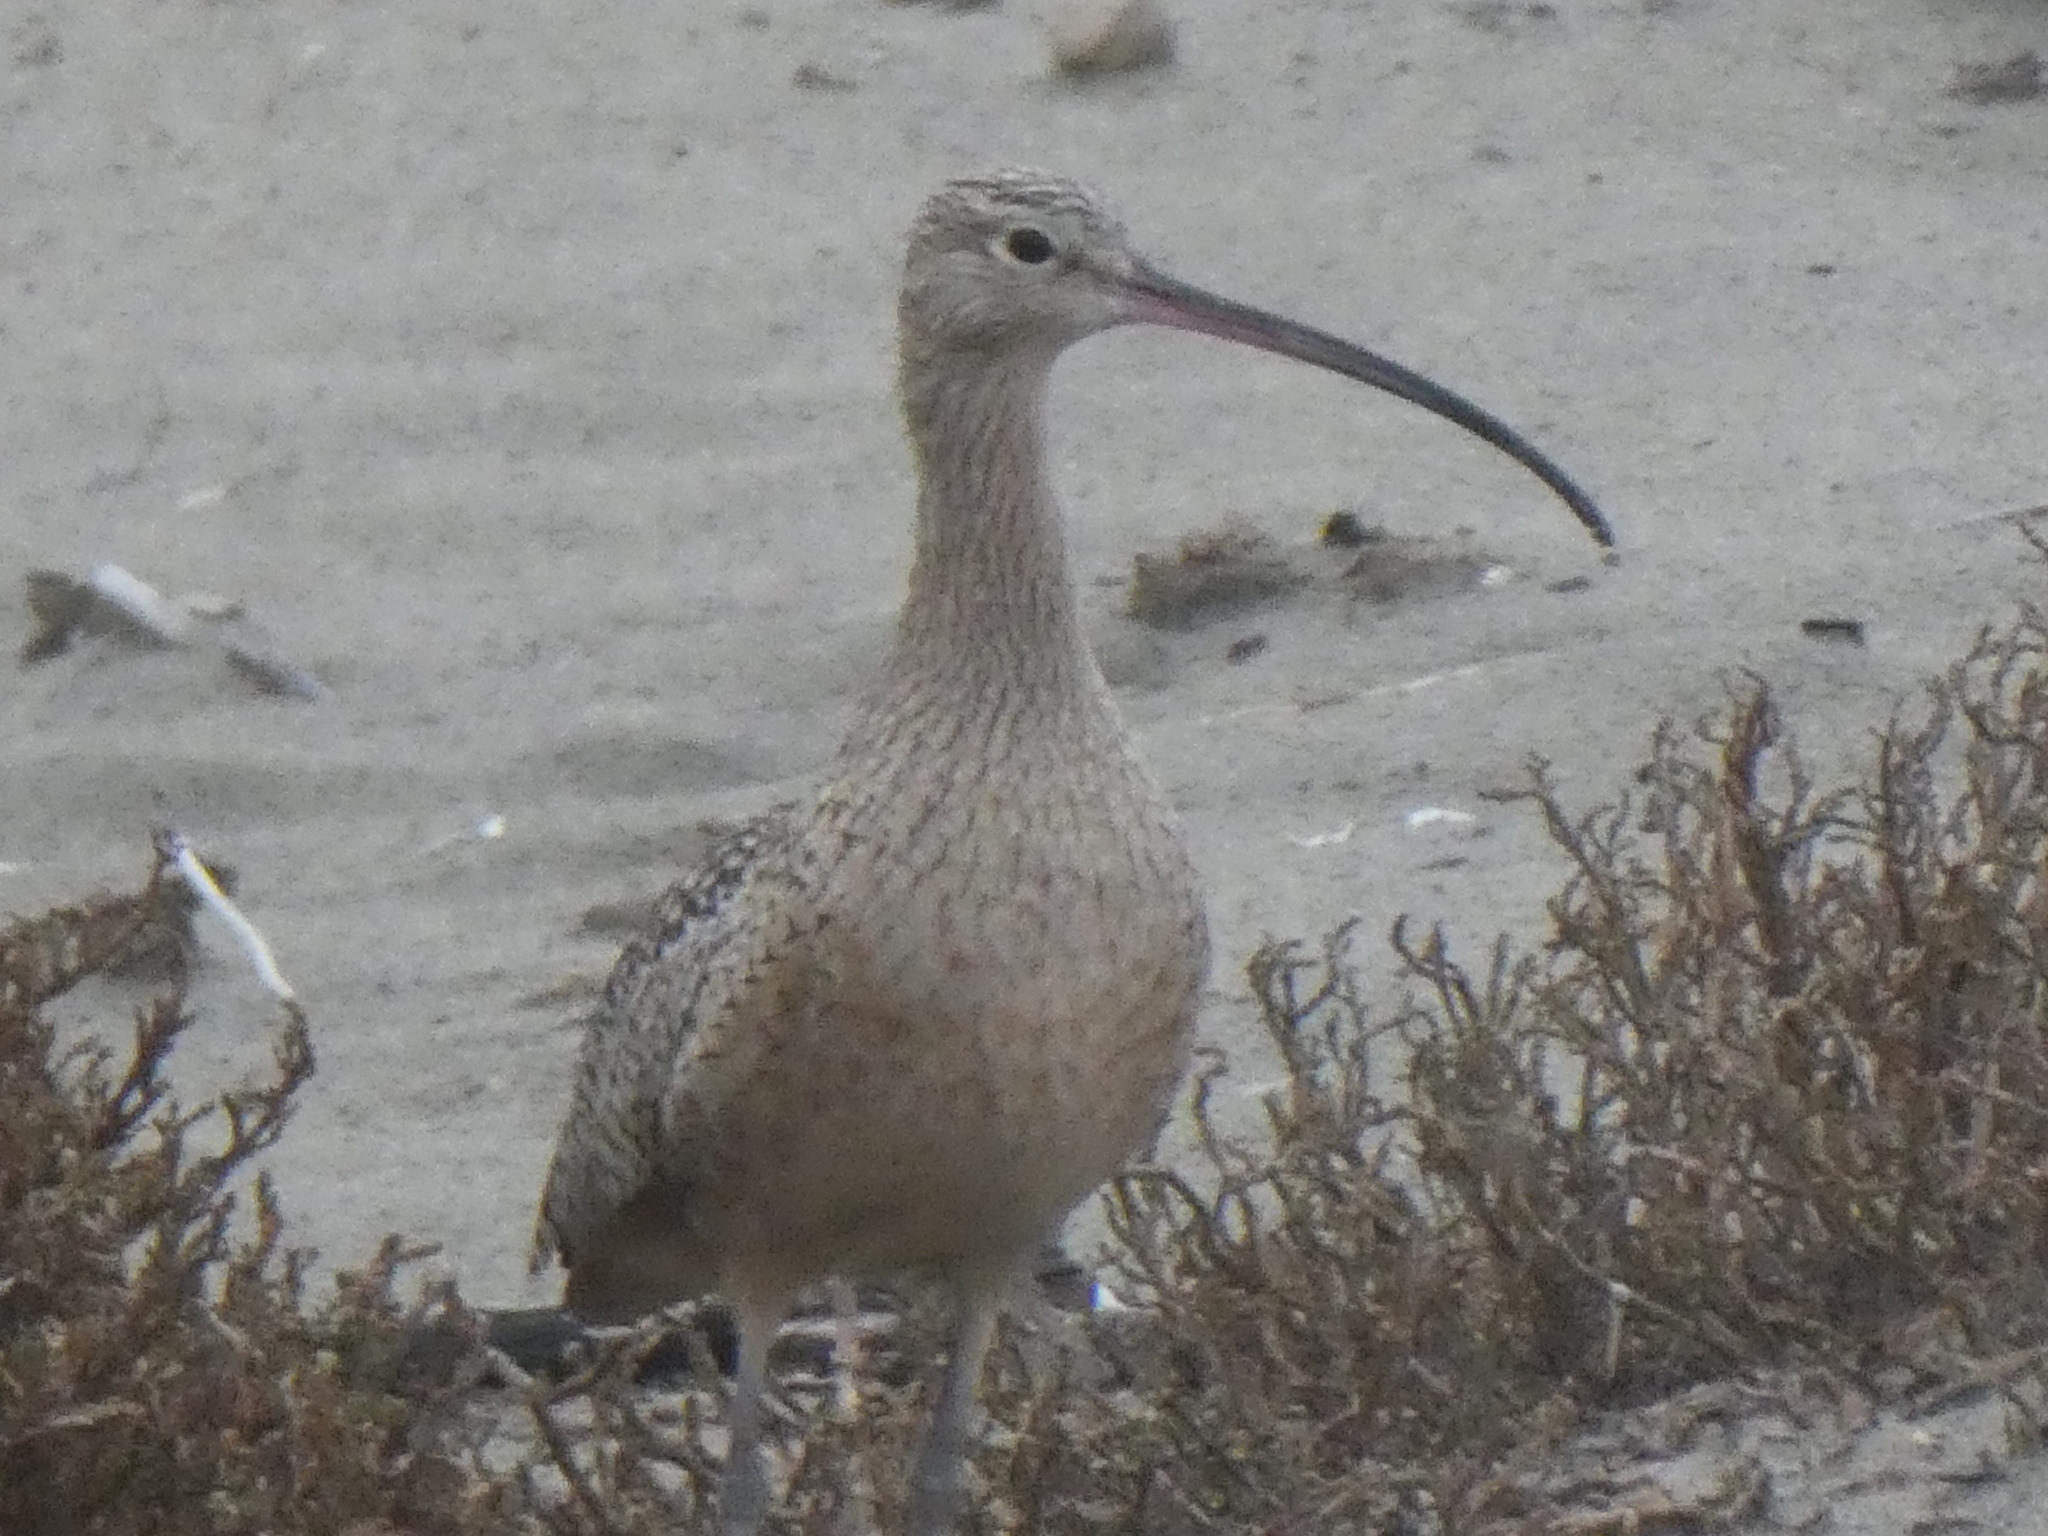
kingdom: Animalia
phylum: Chordata
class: Aves
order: Charadriiformes
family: Scolopacidae
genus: Numenius
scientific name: Numenius americanus
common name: Long-billed curlew
